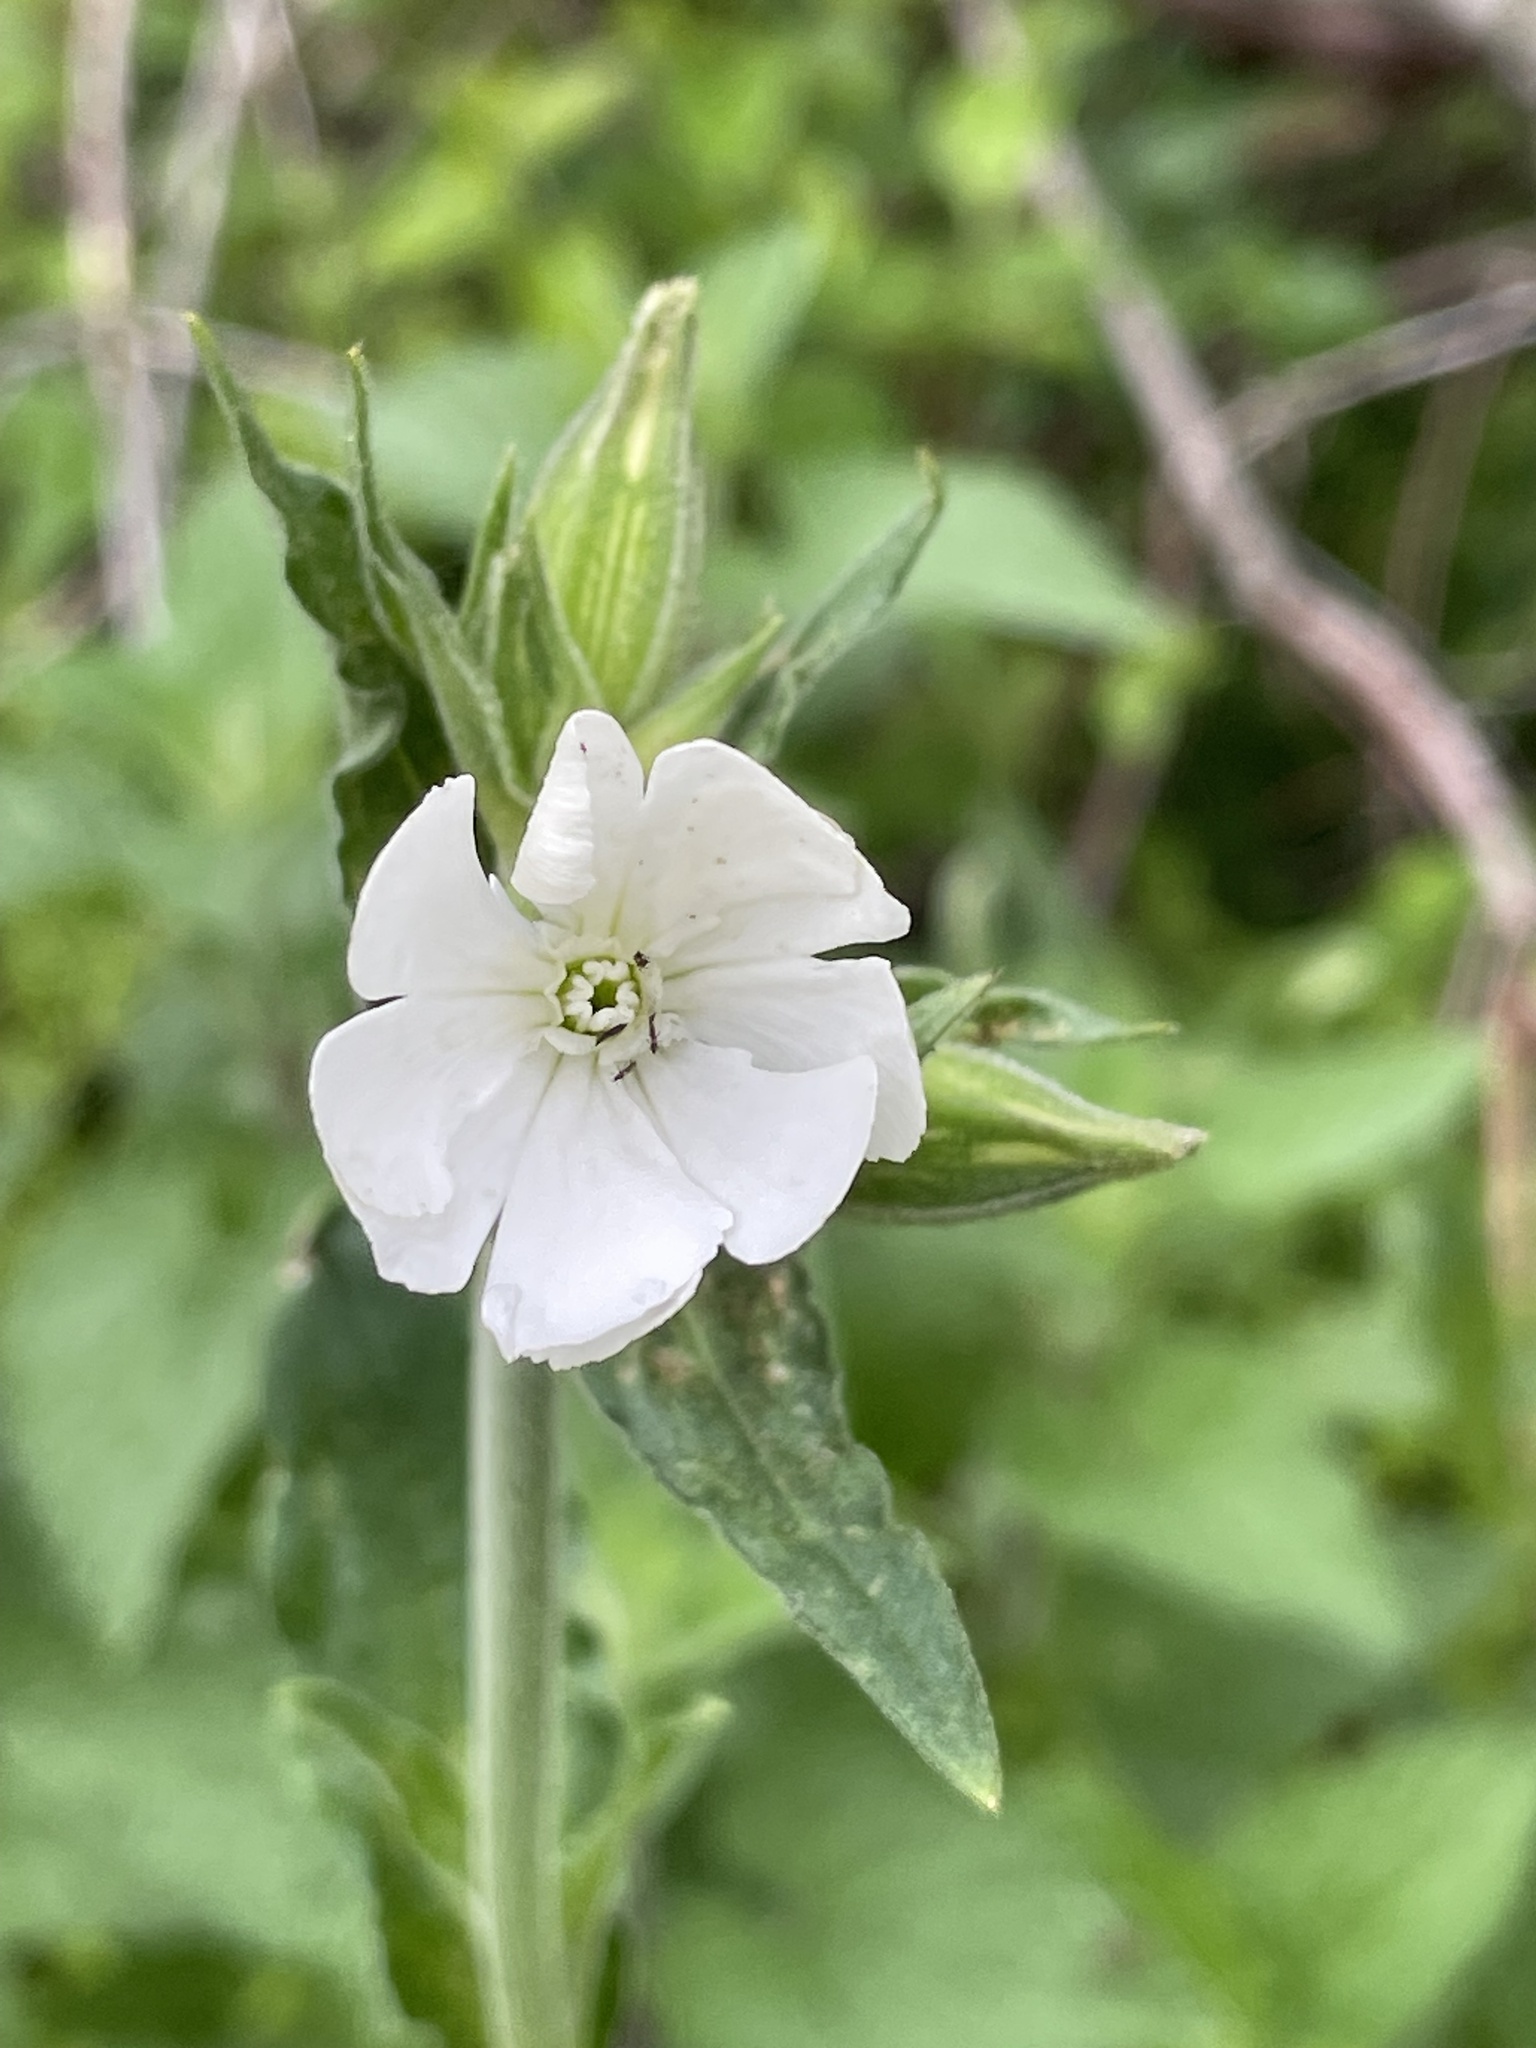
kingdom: Plantae
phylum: Tracheophyta
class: Magnoliopsida
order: Caryophyllales
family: Caryophyllaceae
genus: Silene
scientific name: Silene latifolia
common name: White campion
